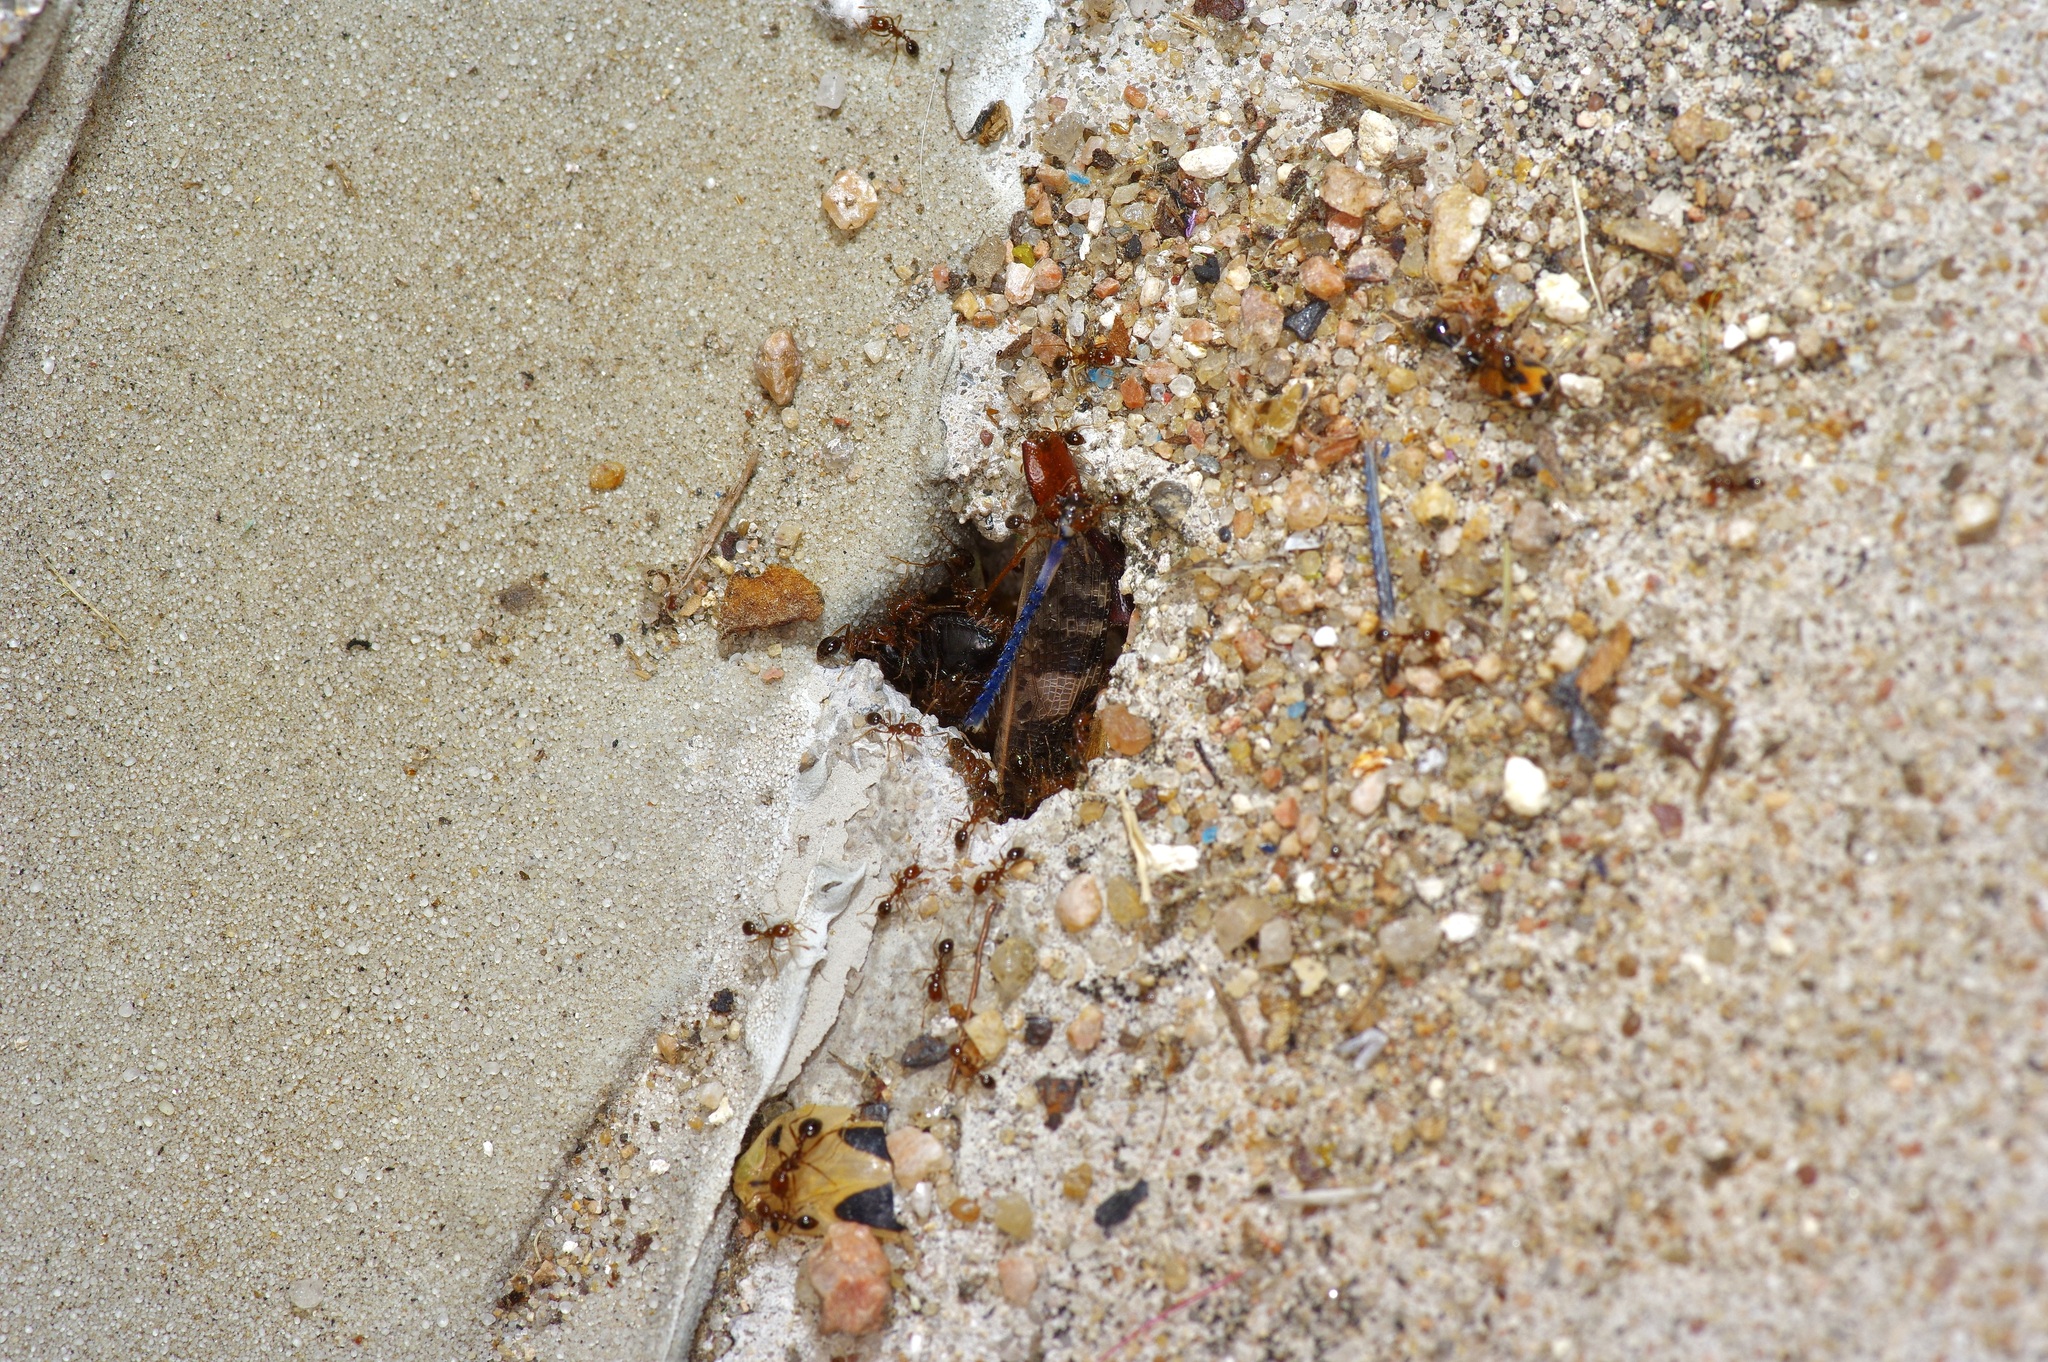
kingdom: Animalia
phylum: Arthropoda
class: Insecta
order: Hymenoptera
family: Formicidae
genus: Solenopsis
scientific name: Solenopsis invicta
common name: Red imported fire ant
